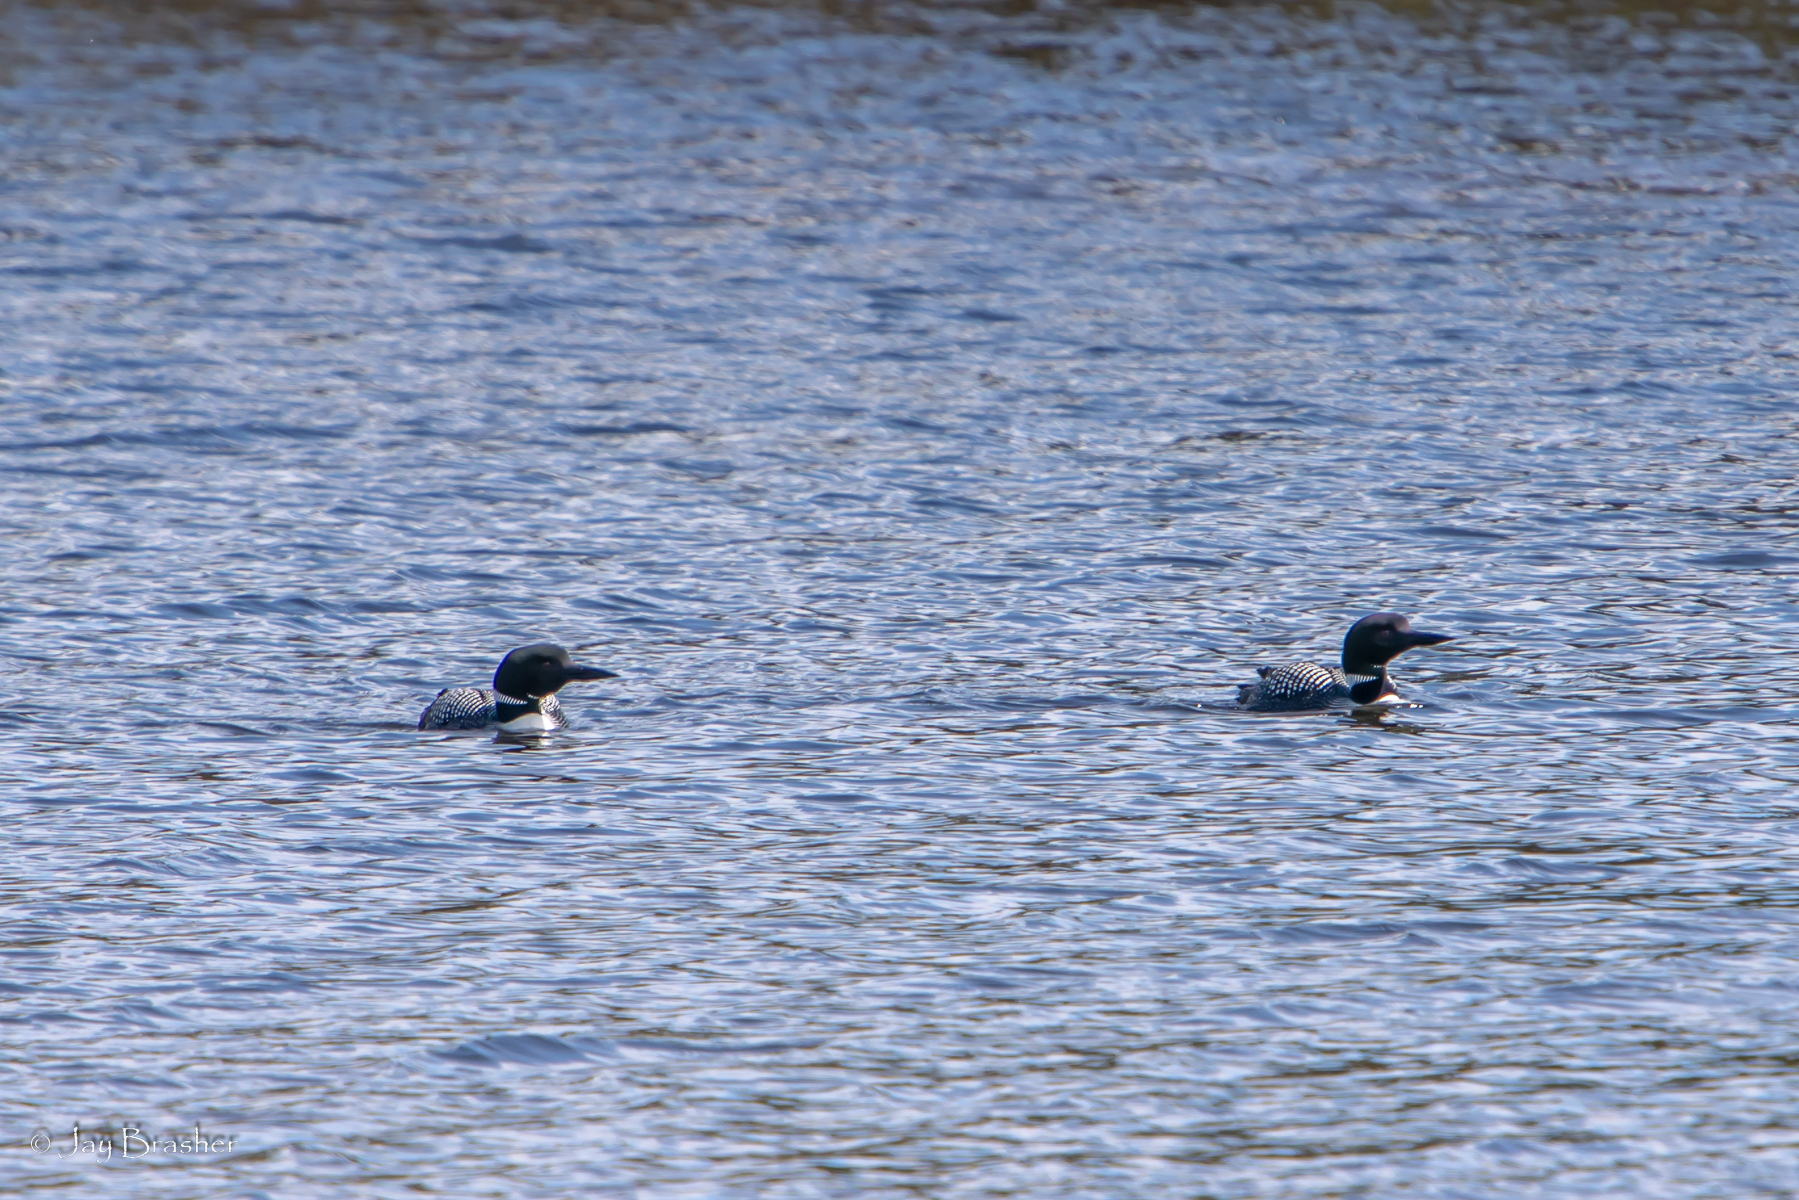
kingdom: Animalia
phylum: Chordata
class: Aves
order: Gaviiformes
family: Gaviidae
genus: Gavia
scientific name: Gavia immer
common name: Common loon
